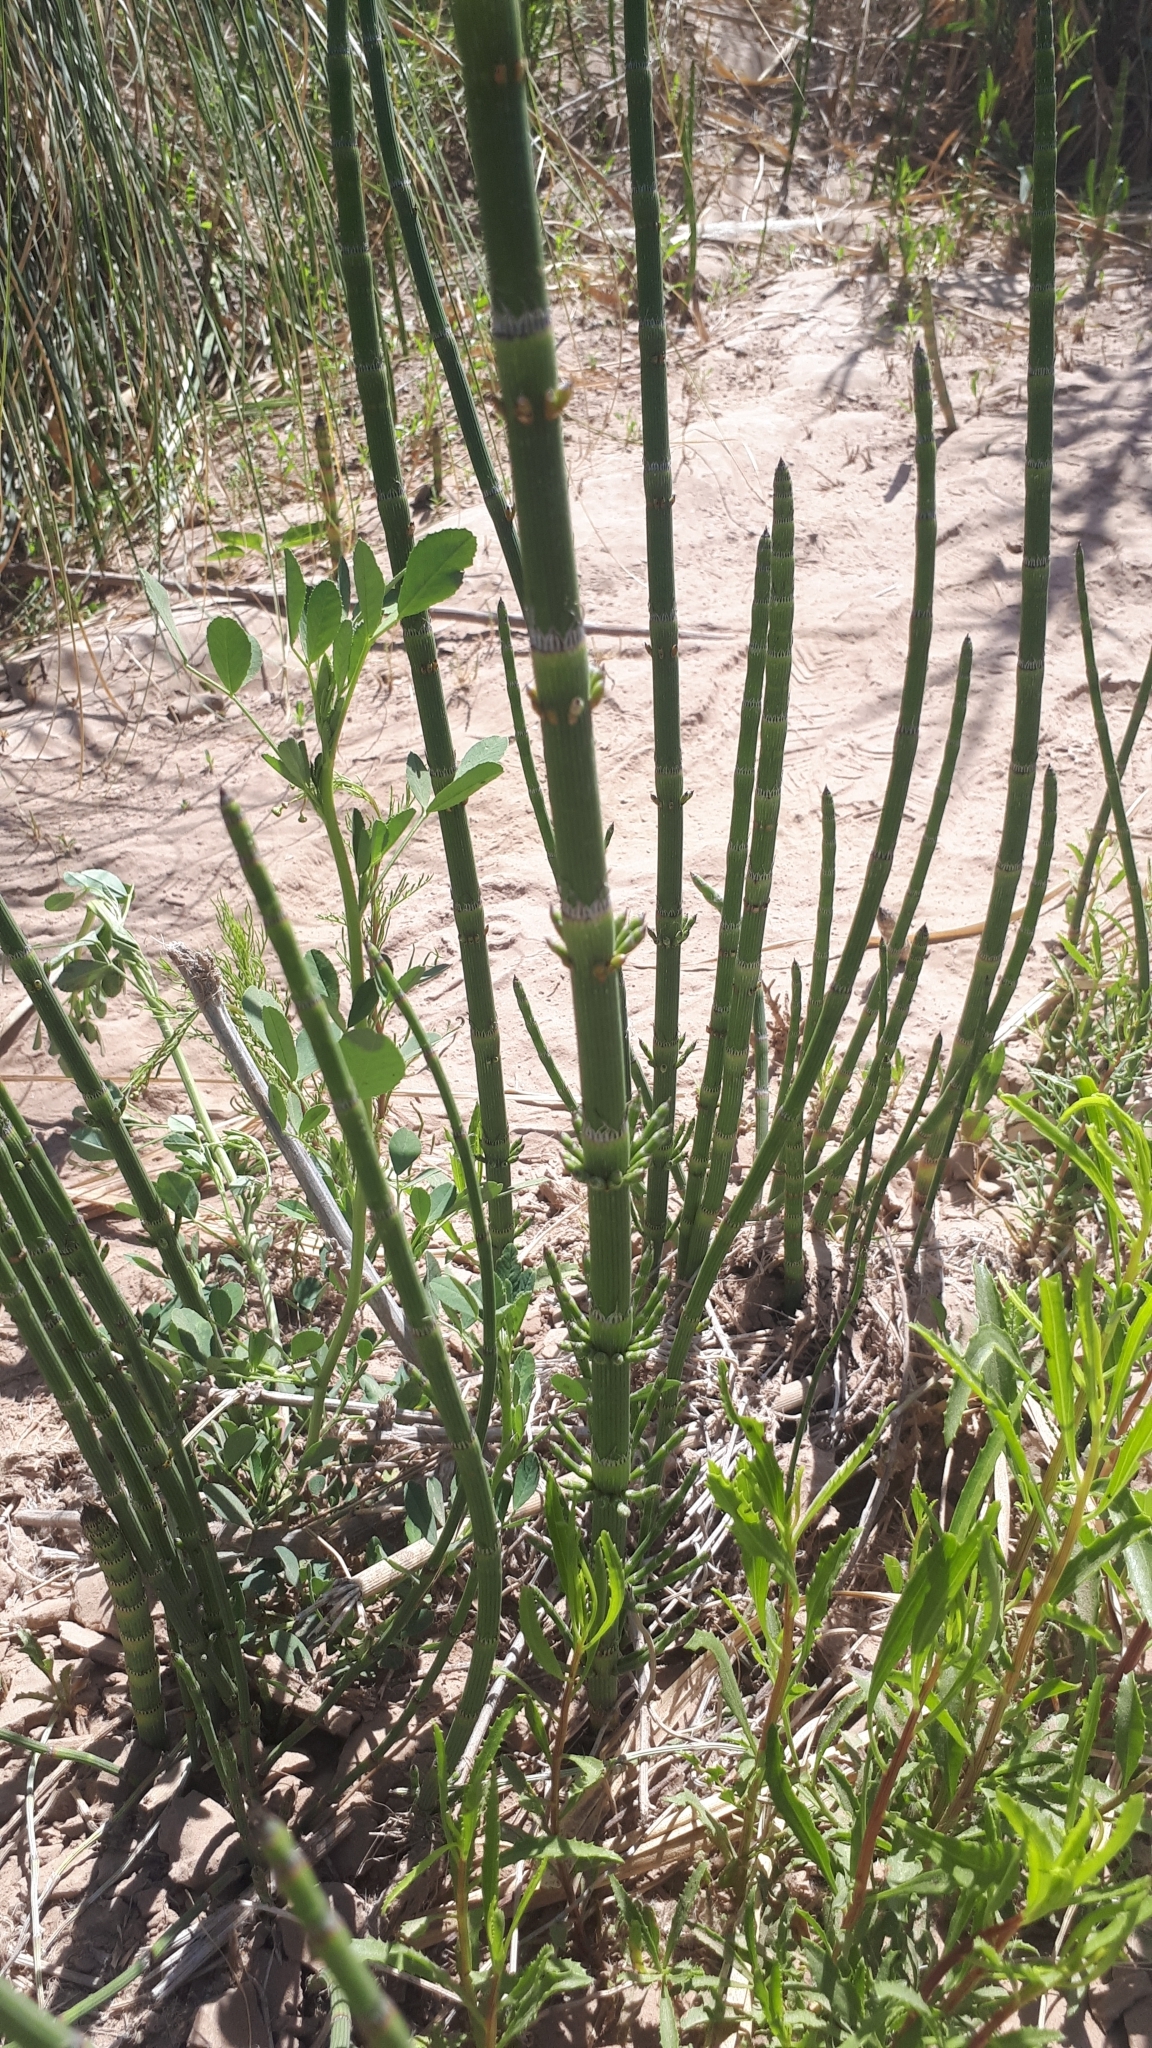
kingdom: Plantae
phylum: Tracheophyta
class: Polypodiopsida
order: Equisetales
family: Equisetaceae
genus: Equisetum
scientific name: Equisetum giganteum
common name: Giant horsetail
